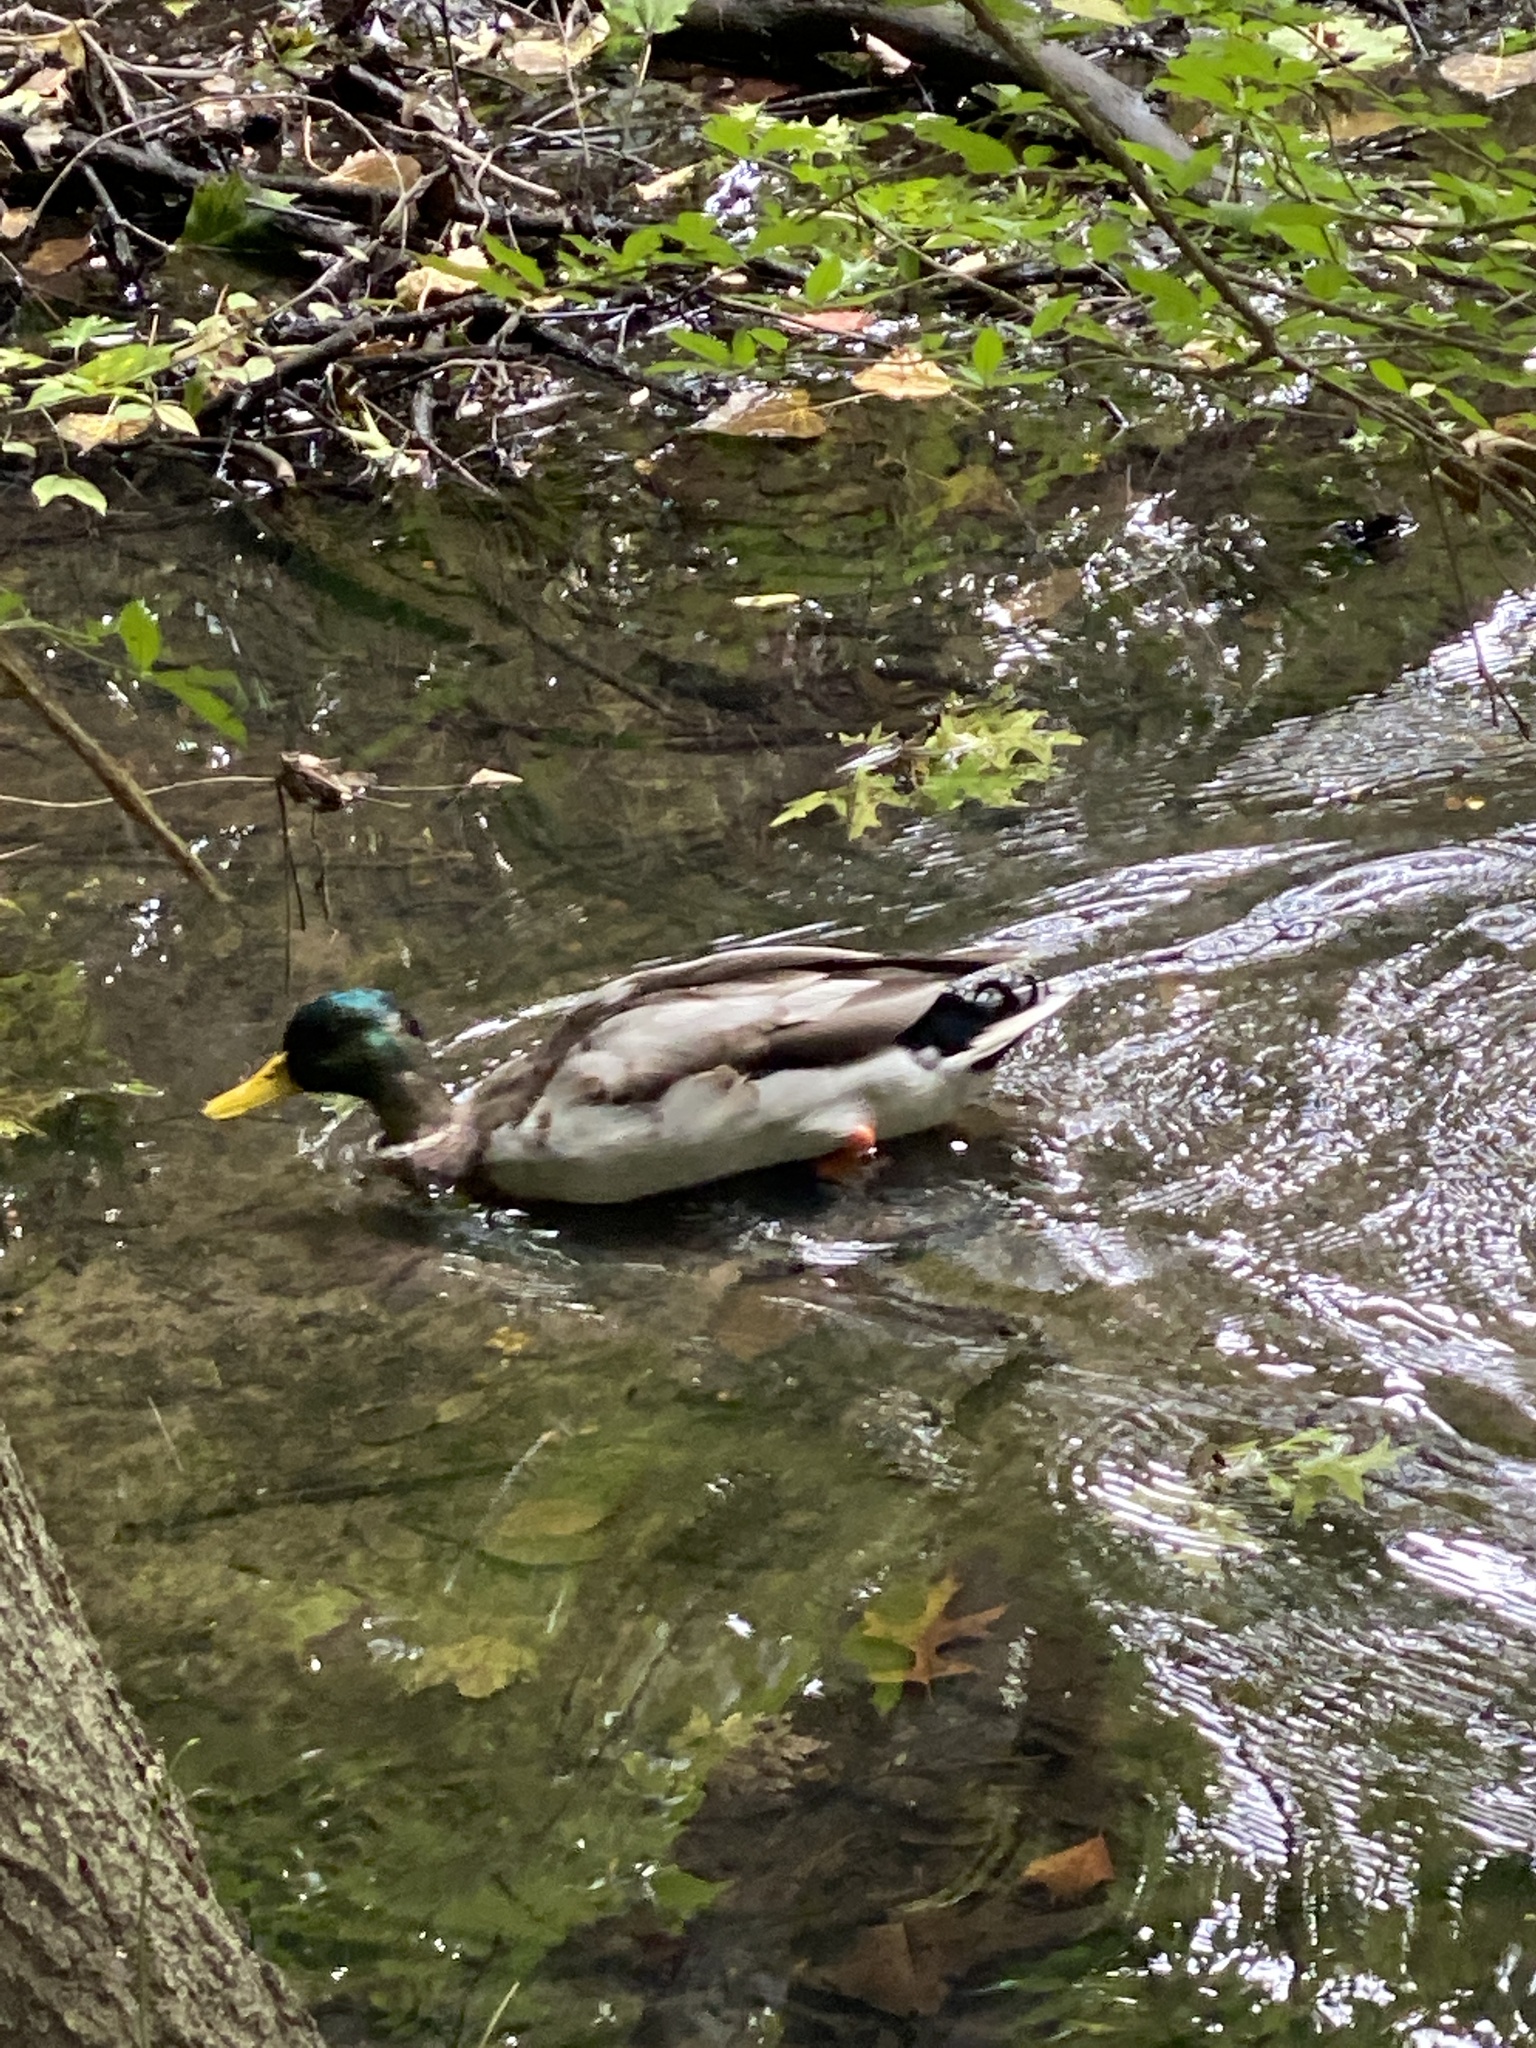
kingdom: Animalia
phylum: Chordata
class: Aves
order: Anseriformes
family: Anatidae
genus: Anas
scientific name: Anas platyrhynchos
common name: Mallard
